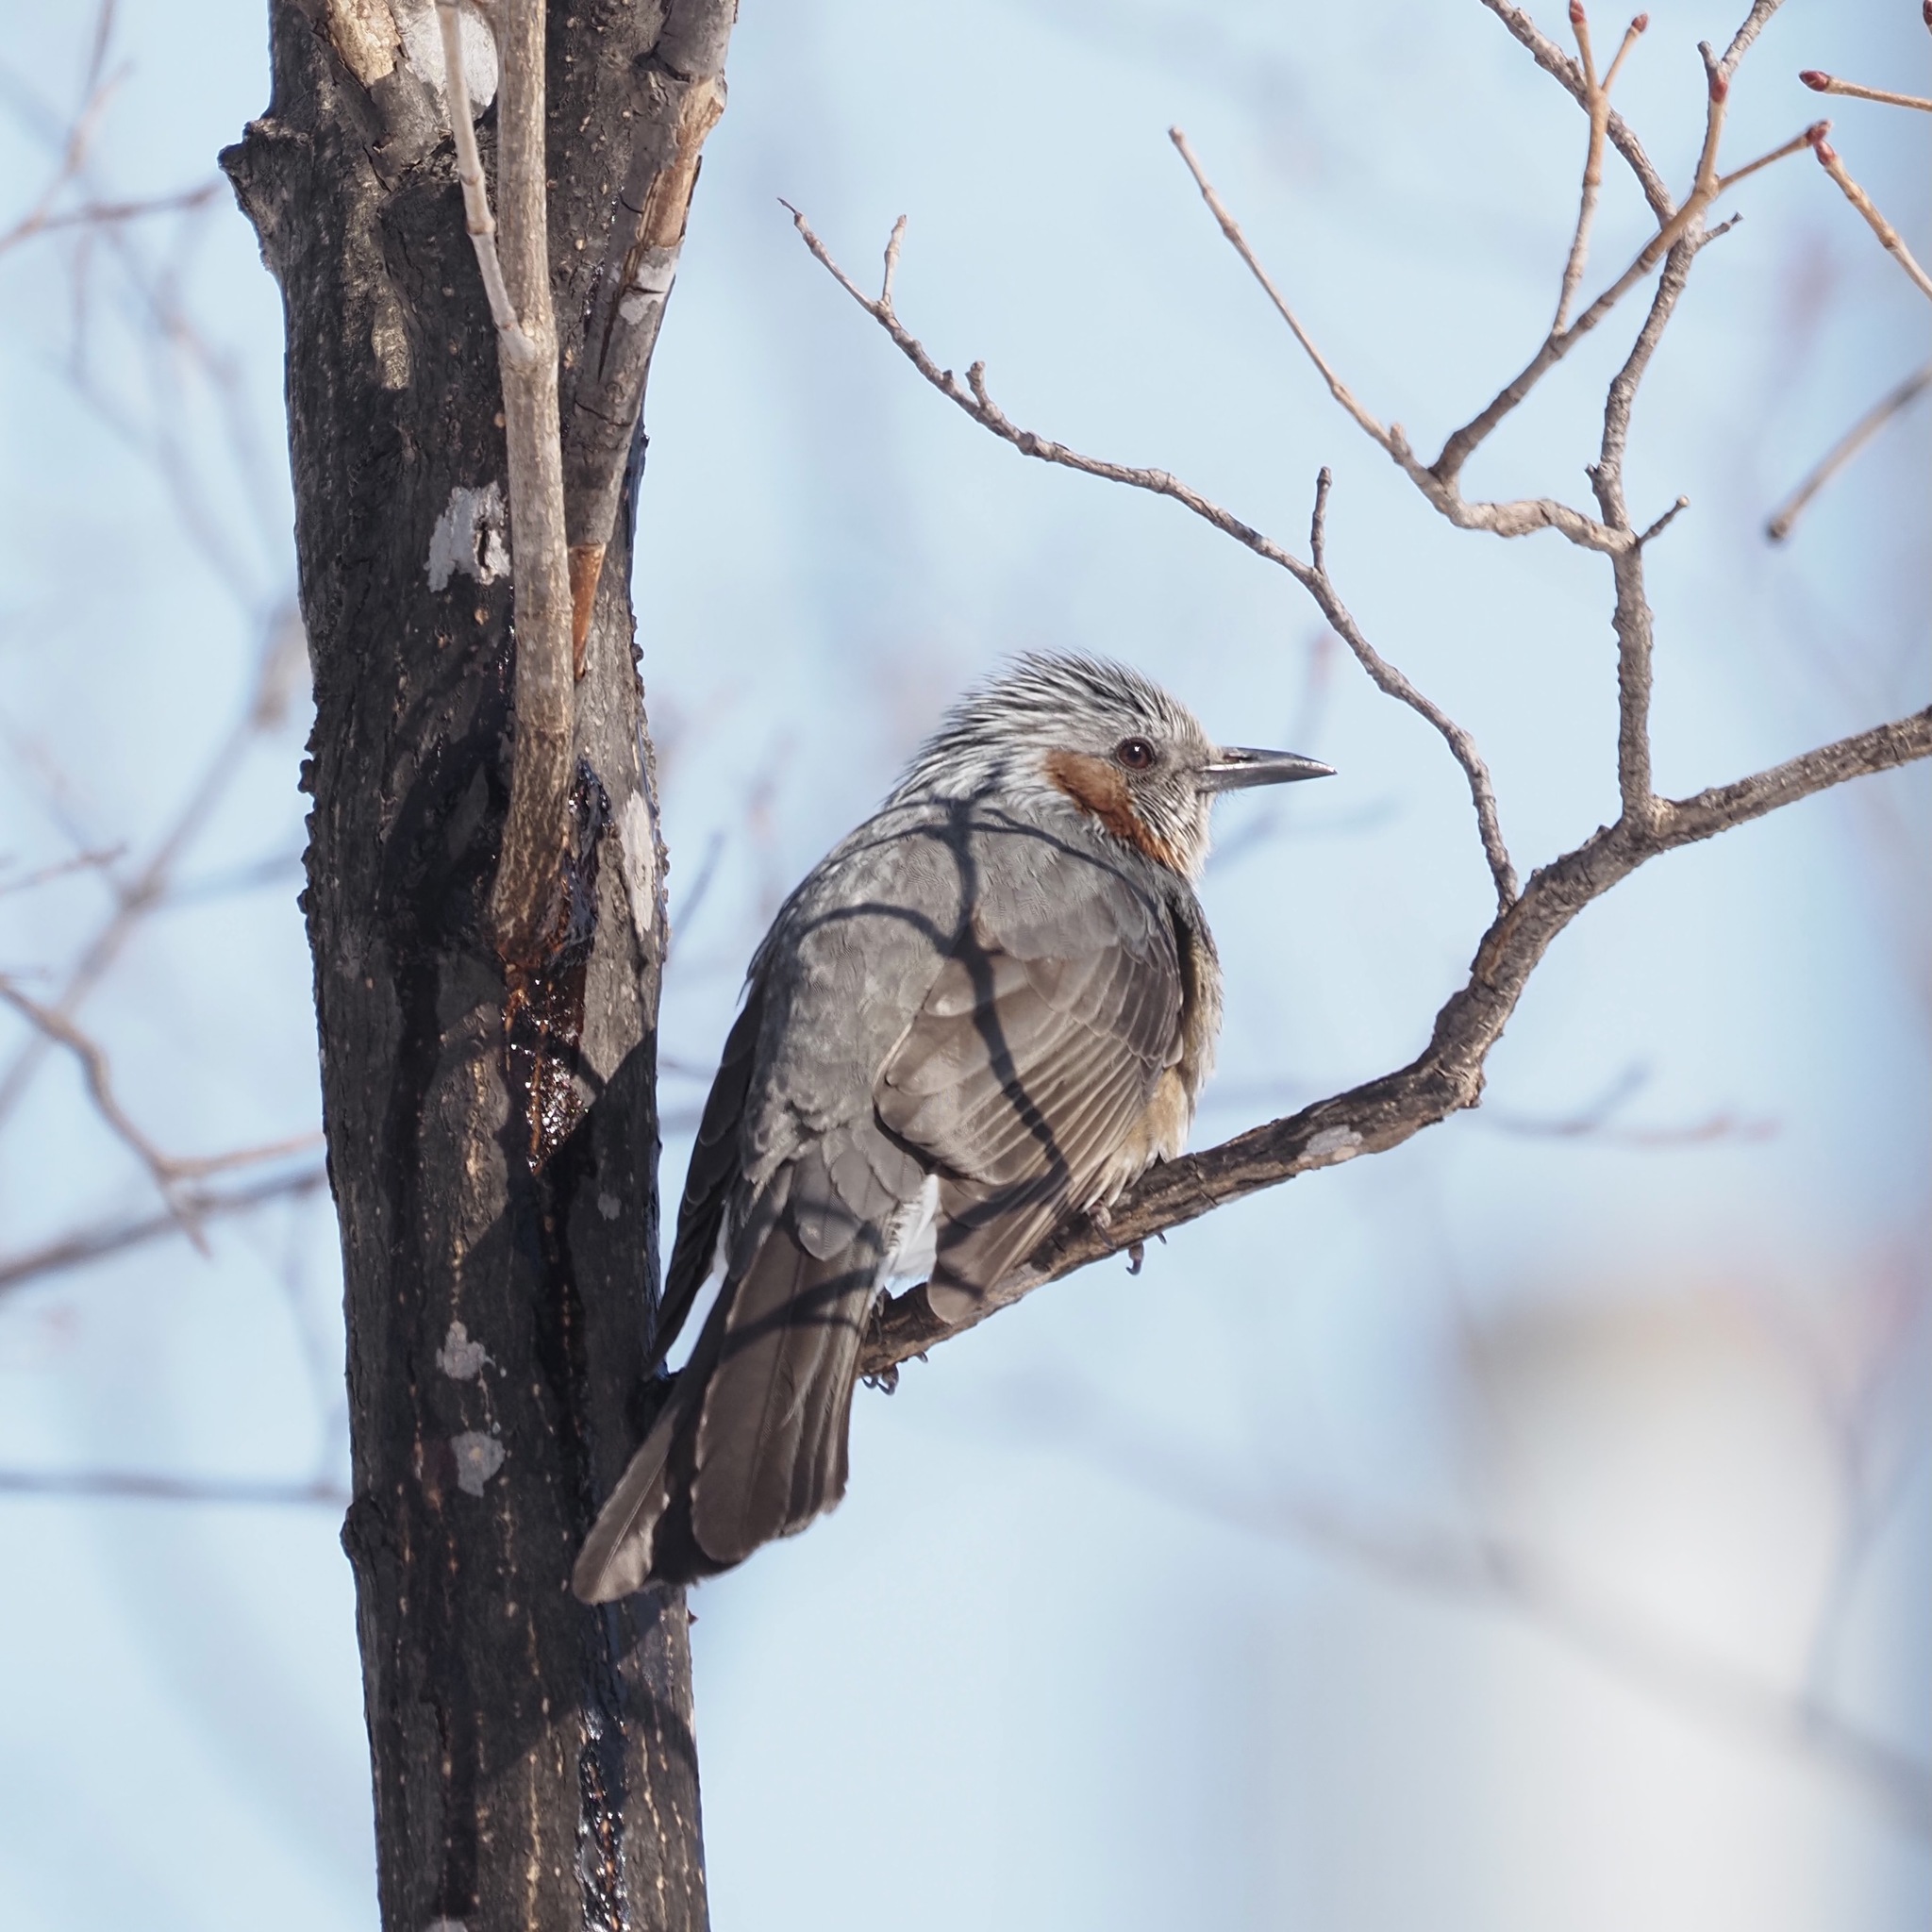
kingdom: Animalia
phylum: Chordata
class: Aves
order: Passeriformes
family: Pycnonotidae
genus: Hypsipetes
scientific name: Hypsipetes amaurotis
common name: Brown-eared bulbul
